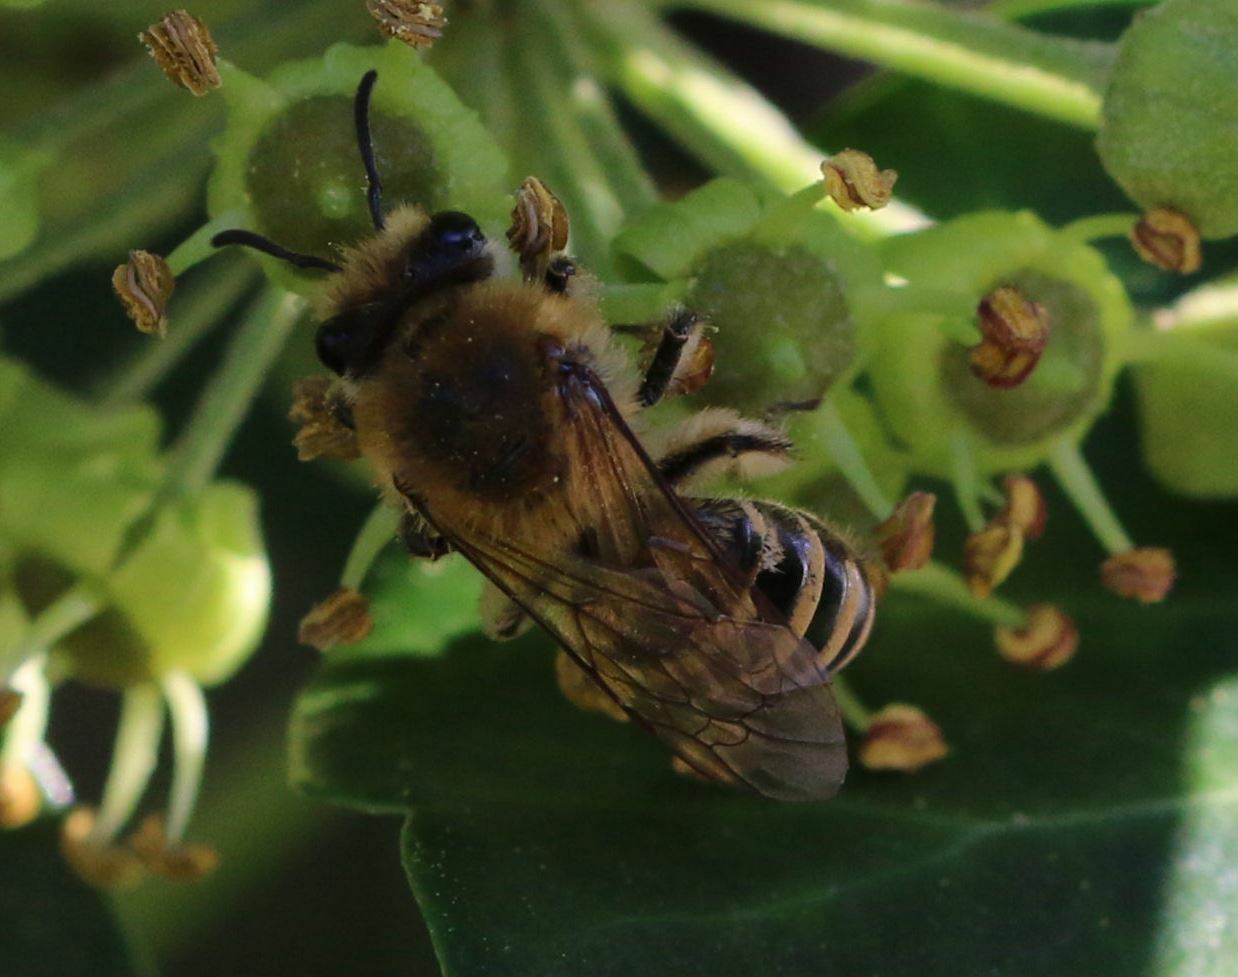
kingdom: Animalia
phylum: Arthropoda
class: Insecta
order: Hymenoptera
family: Colletidae
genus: Colletes
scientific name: Colletes hederae
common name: Ivy bee
